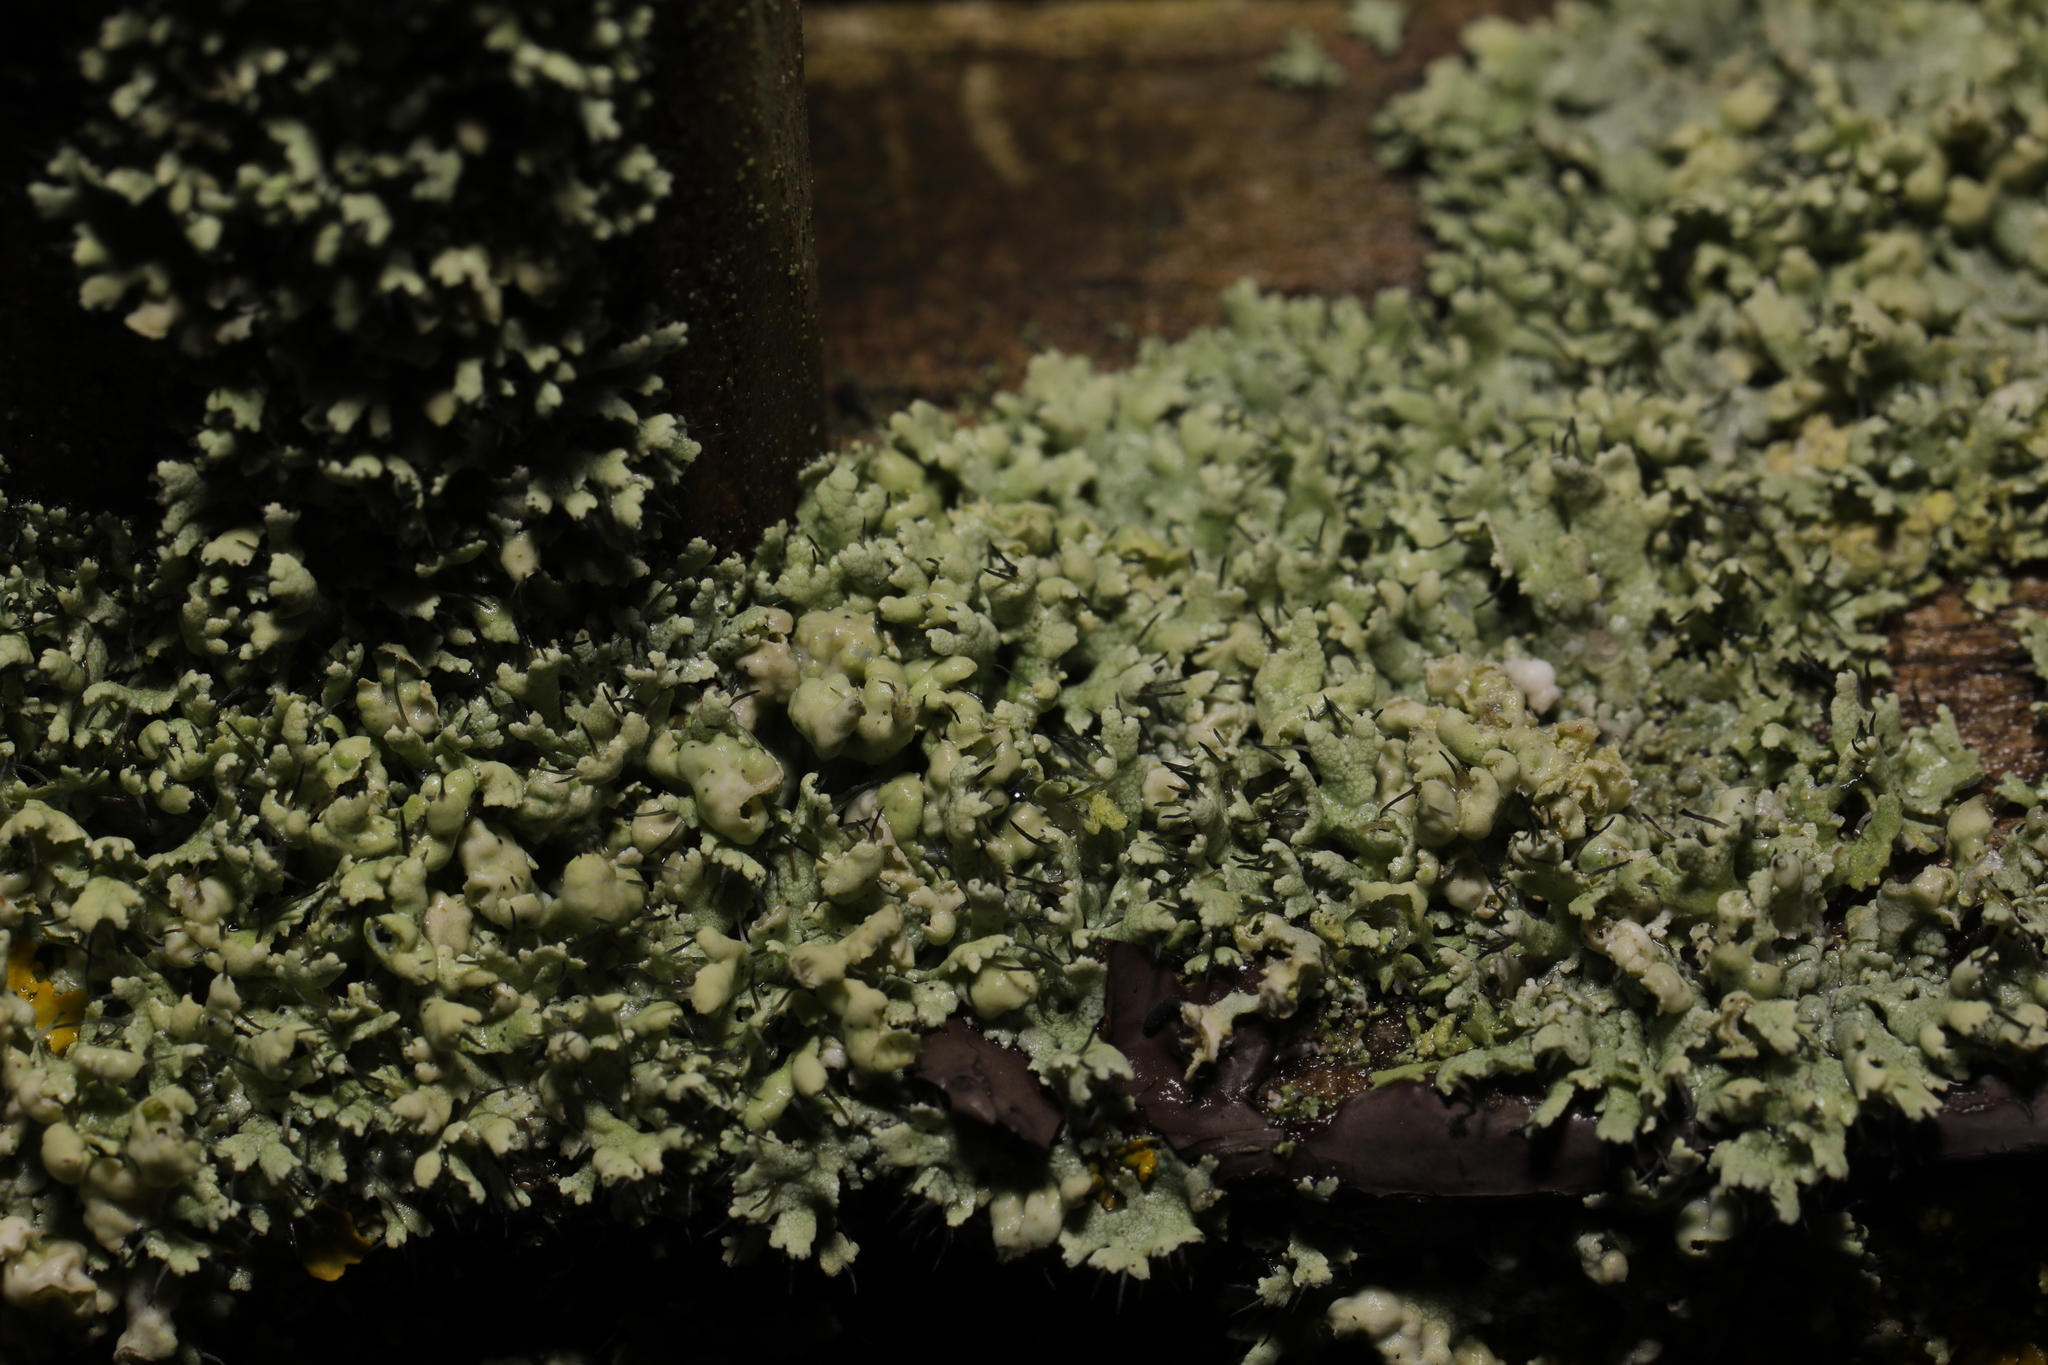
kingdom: Fungi
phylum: Ascomycota
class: Lecanoromycetes
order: Caliciales
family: Physciaceae
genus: Physcia
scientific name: Physcia adscendens
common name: Hooded rosette lichen
